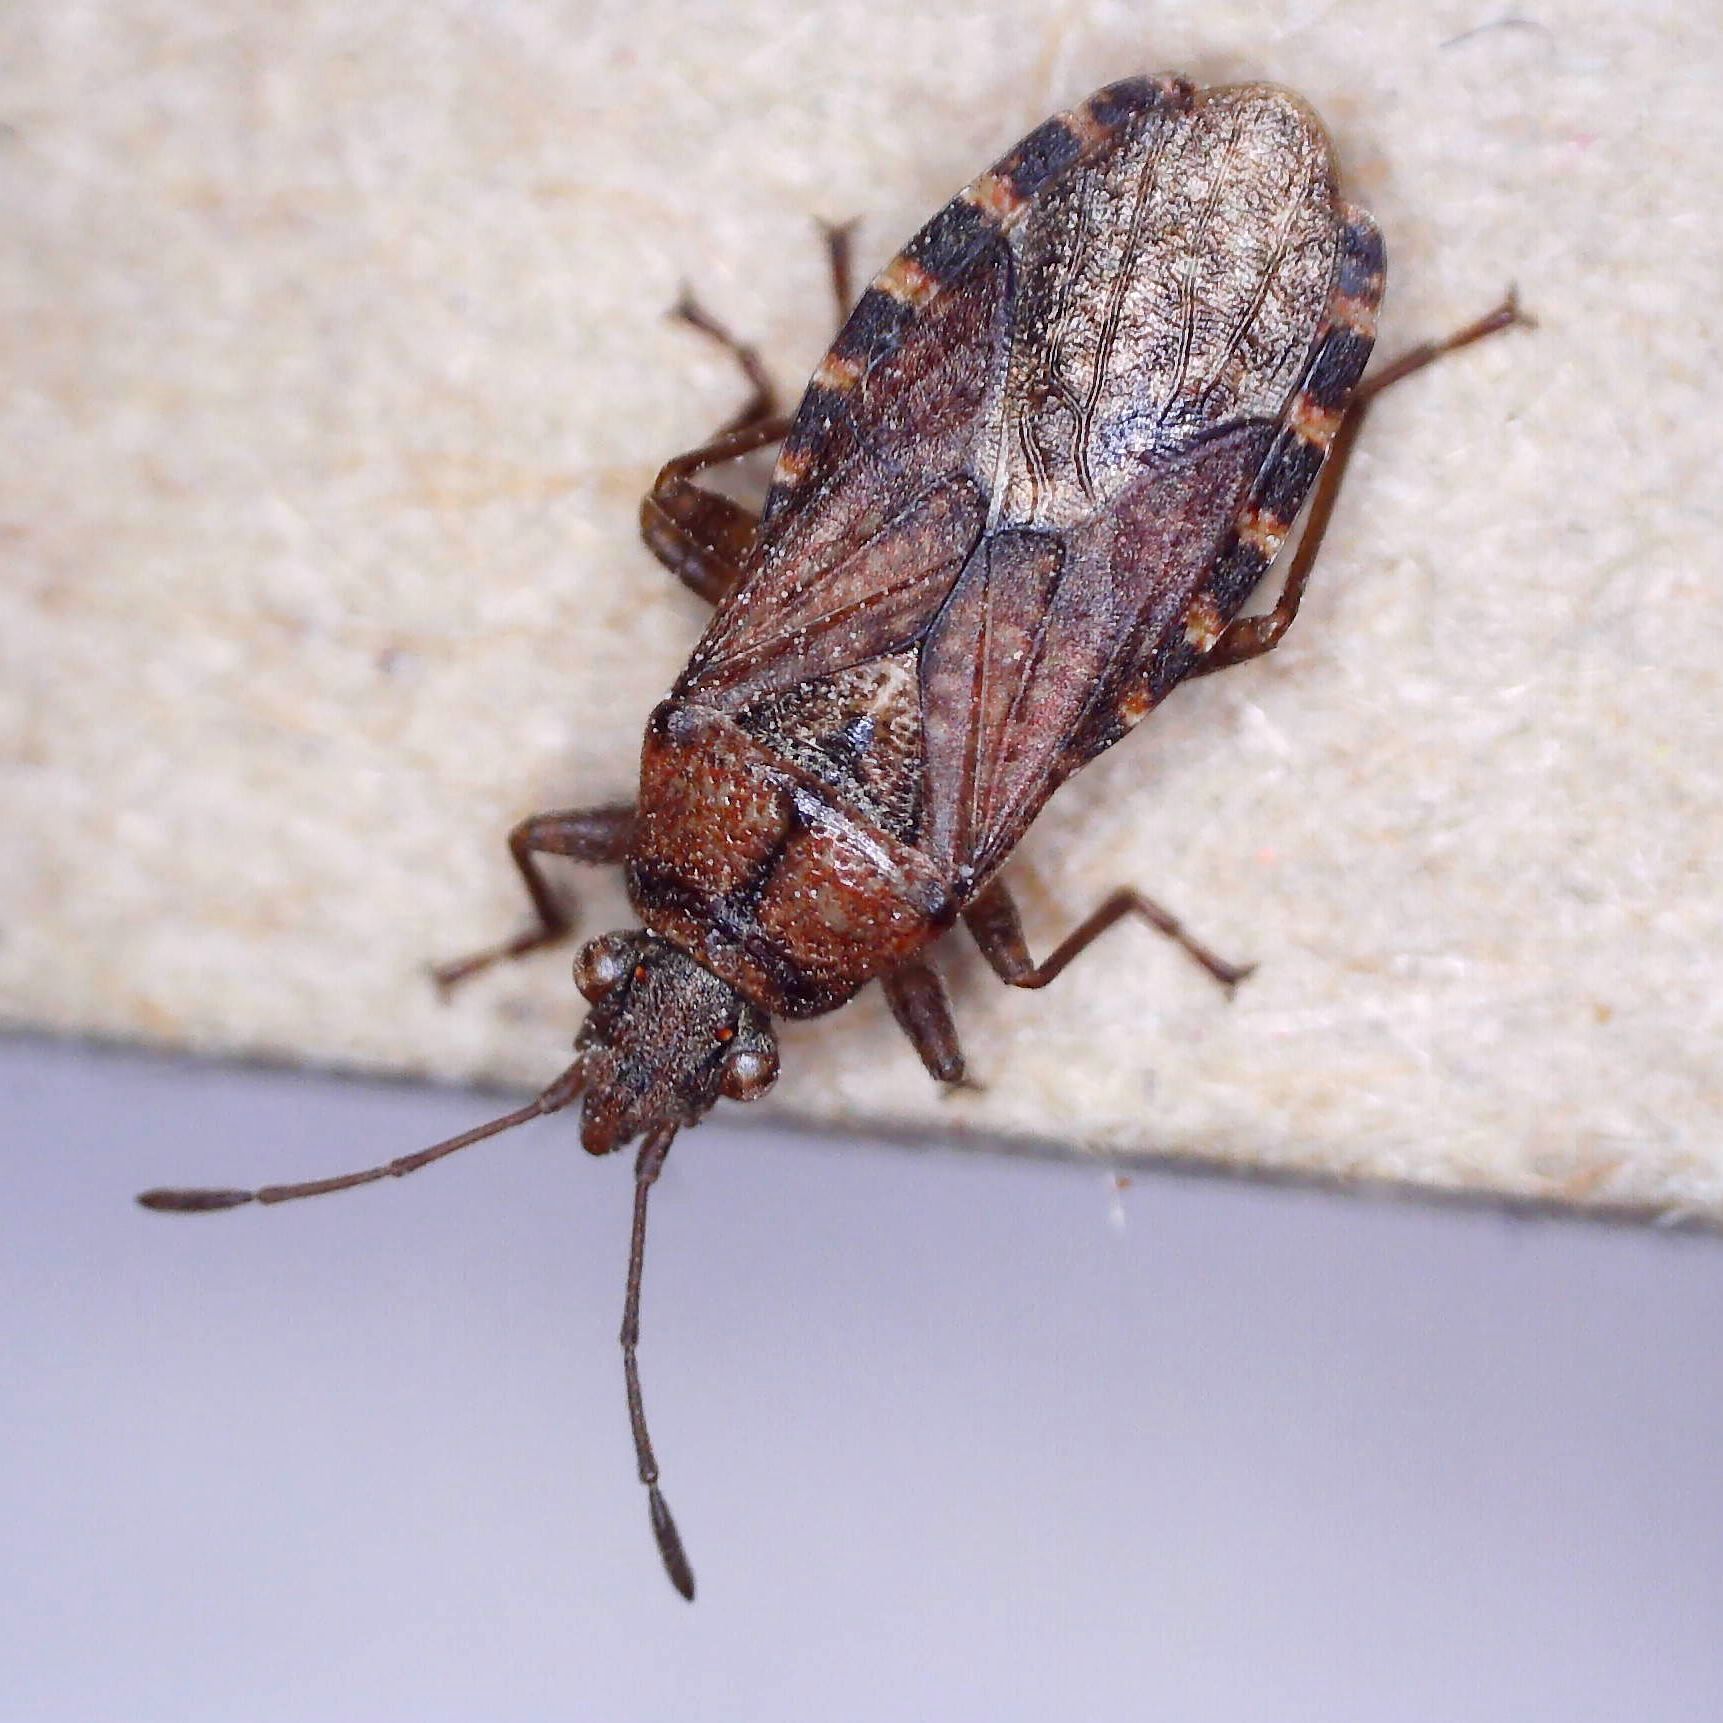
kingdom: Animalia
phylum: Arthropoda
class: Insecta
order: Hemiptera
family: Lygaeidae
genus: Orsillus
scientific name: Orsillus depressus
